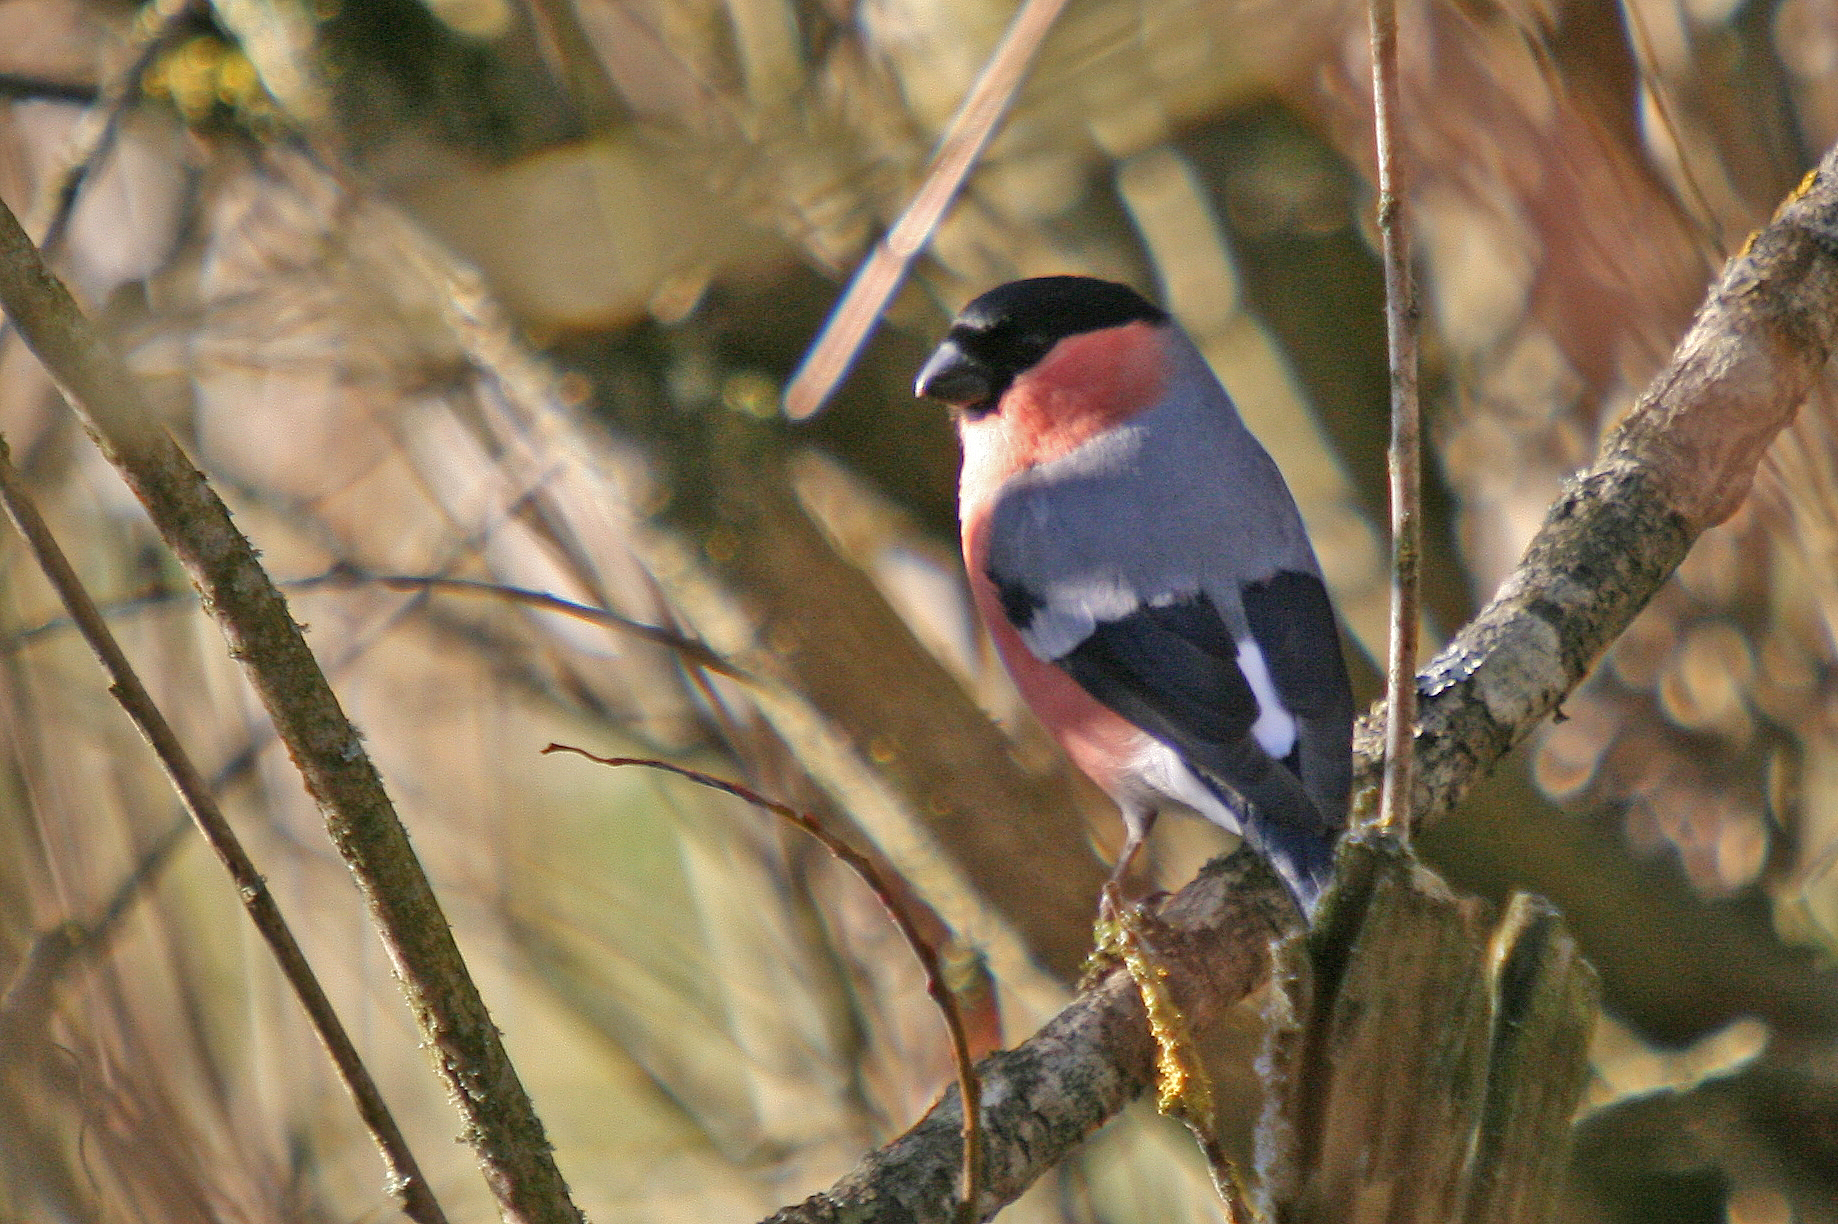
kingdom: Animalia
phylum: Chordata
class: Aves
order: Passeriformes
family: Fringillidae
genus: Pyrrhula
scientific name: Pyrrhula pyrrhula
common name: Eurasian bullfinch
